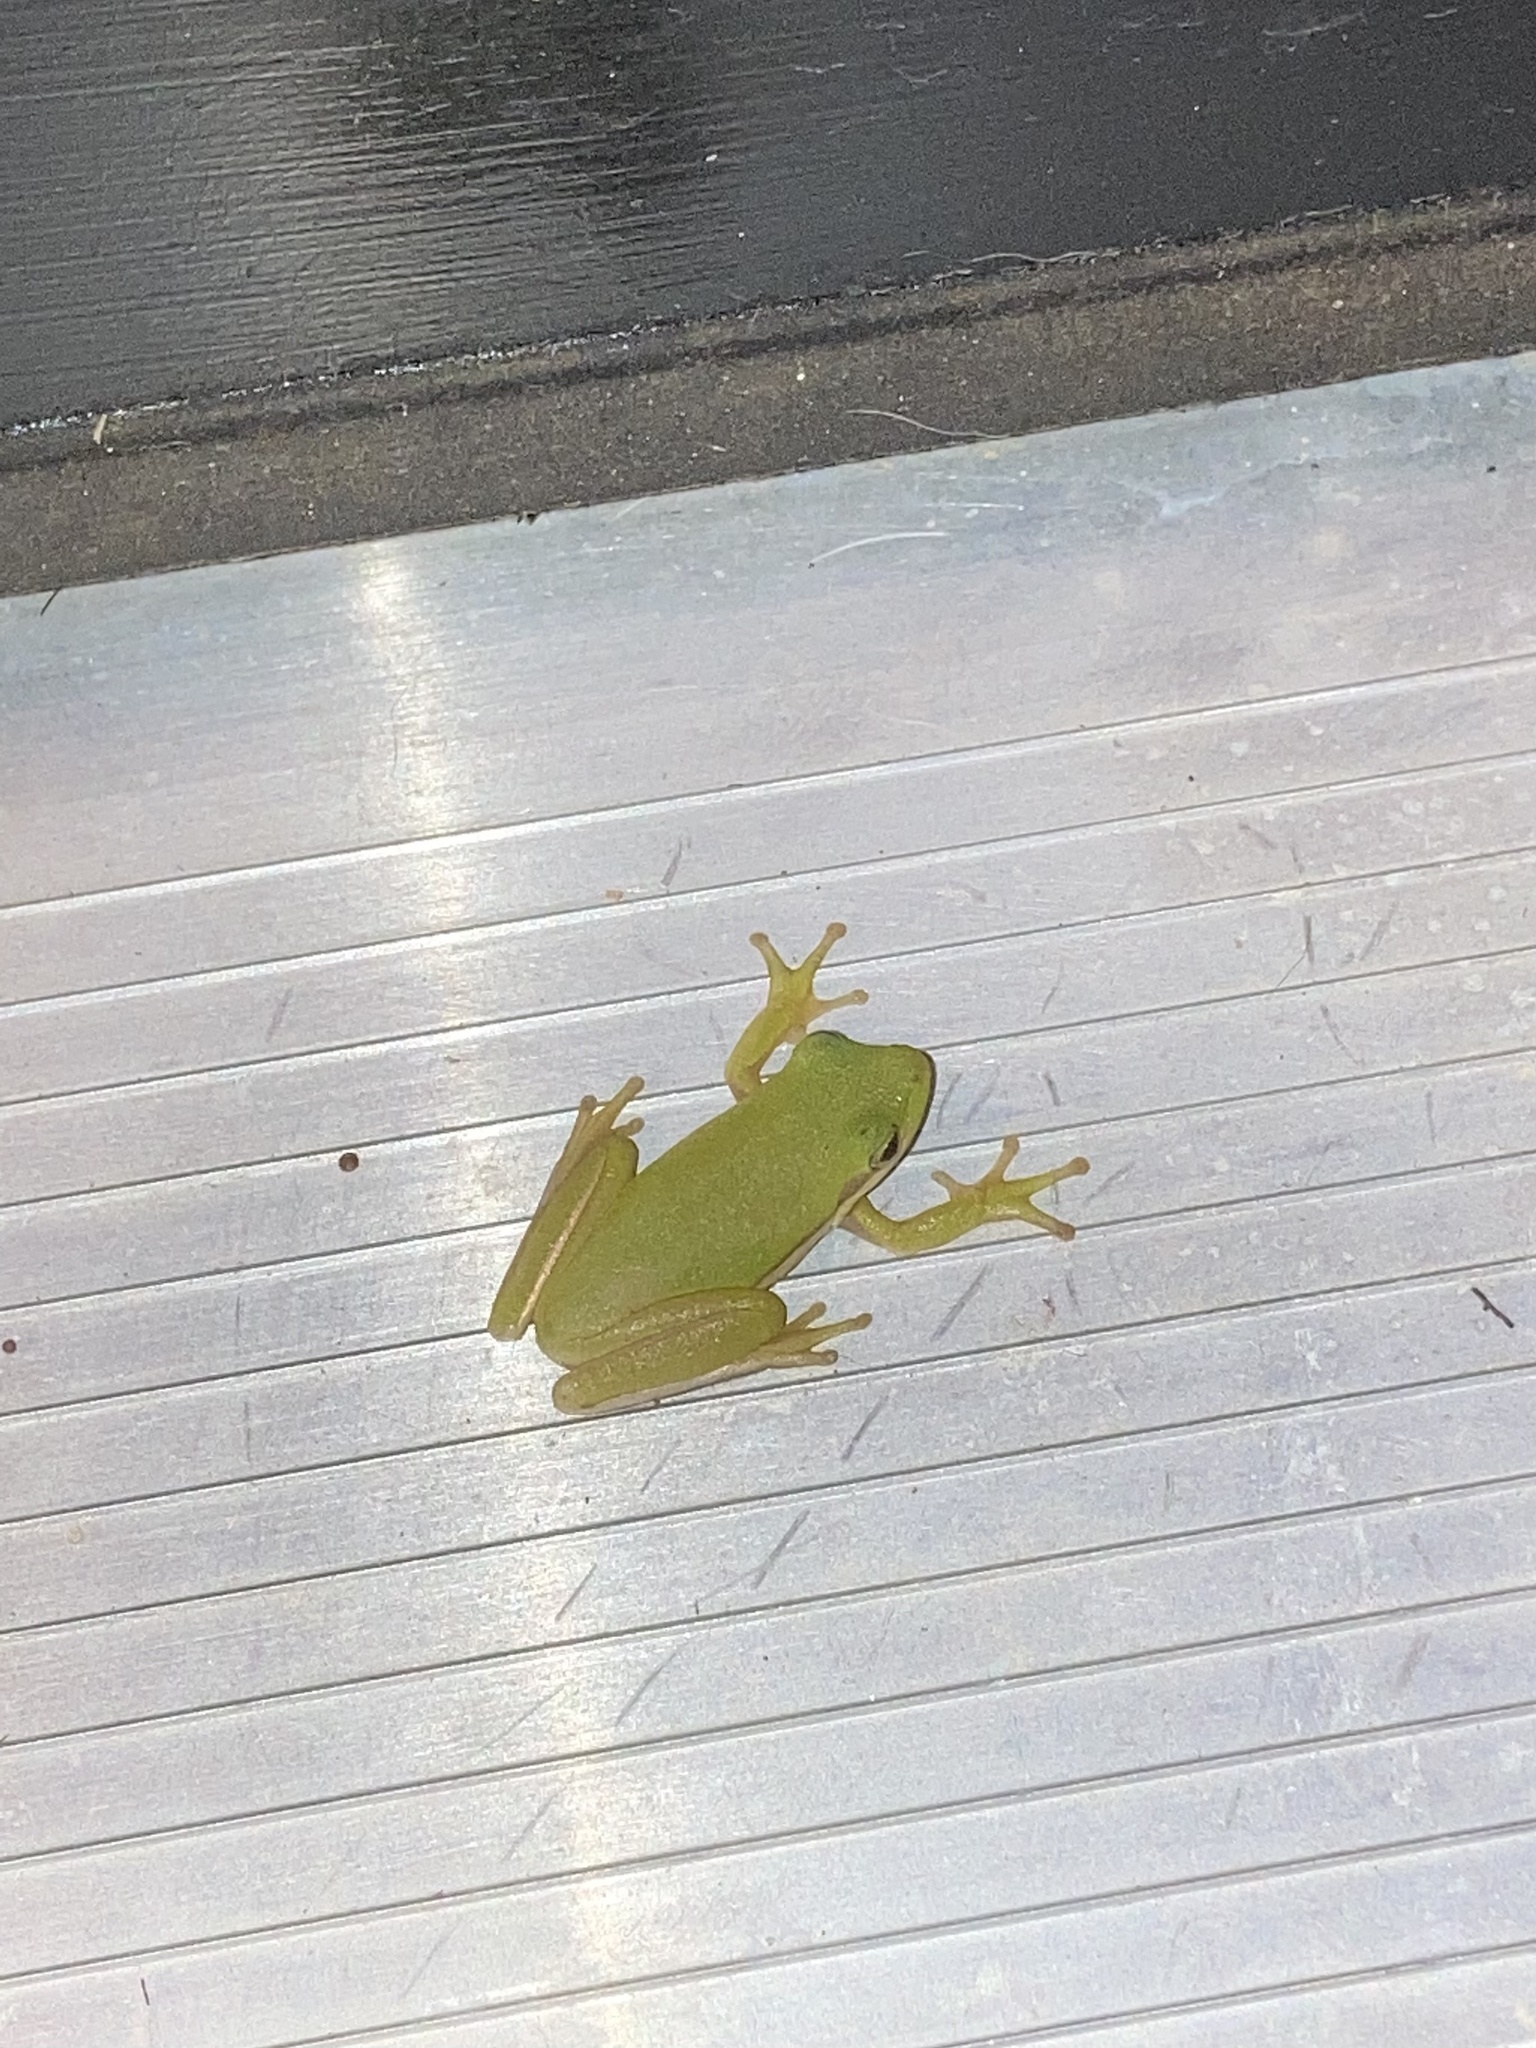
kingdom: Animalia
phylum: Chordata
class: Amphibia
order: Anura
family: Hylidae
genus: Dryophytes
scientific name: Dryophytes cinereus
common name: Green treefrog
